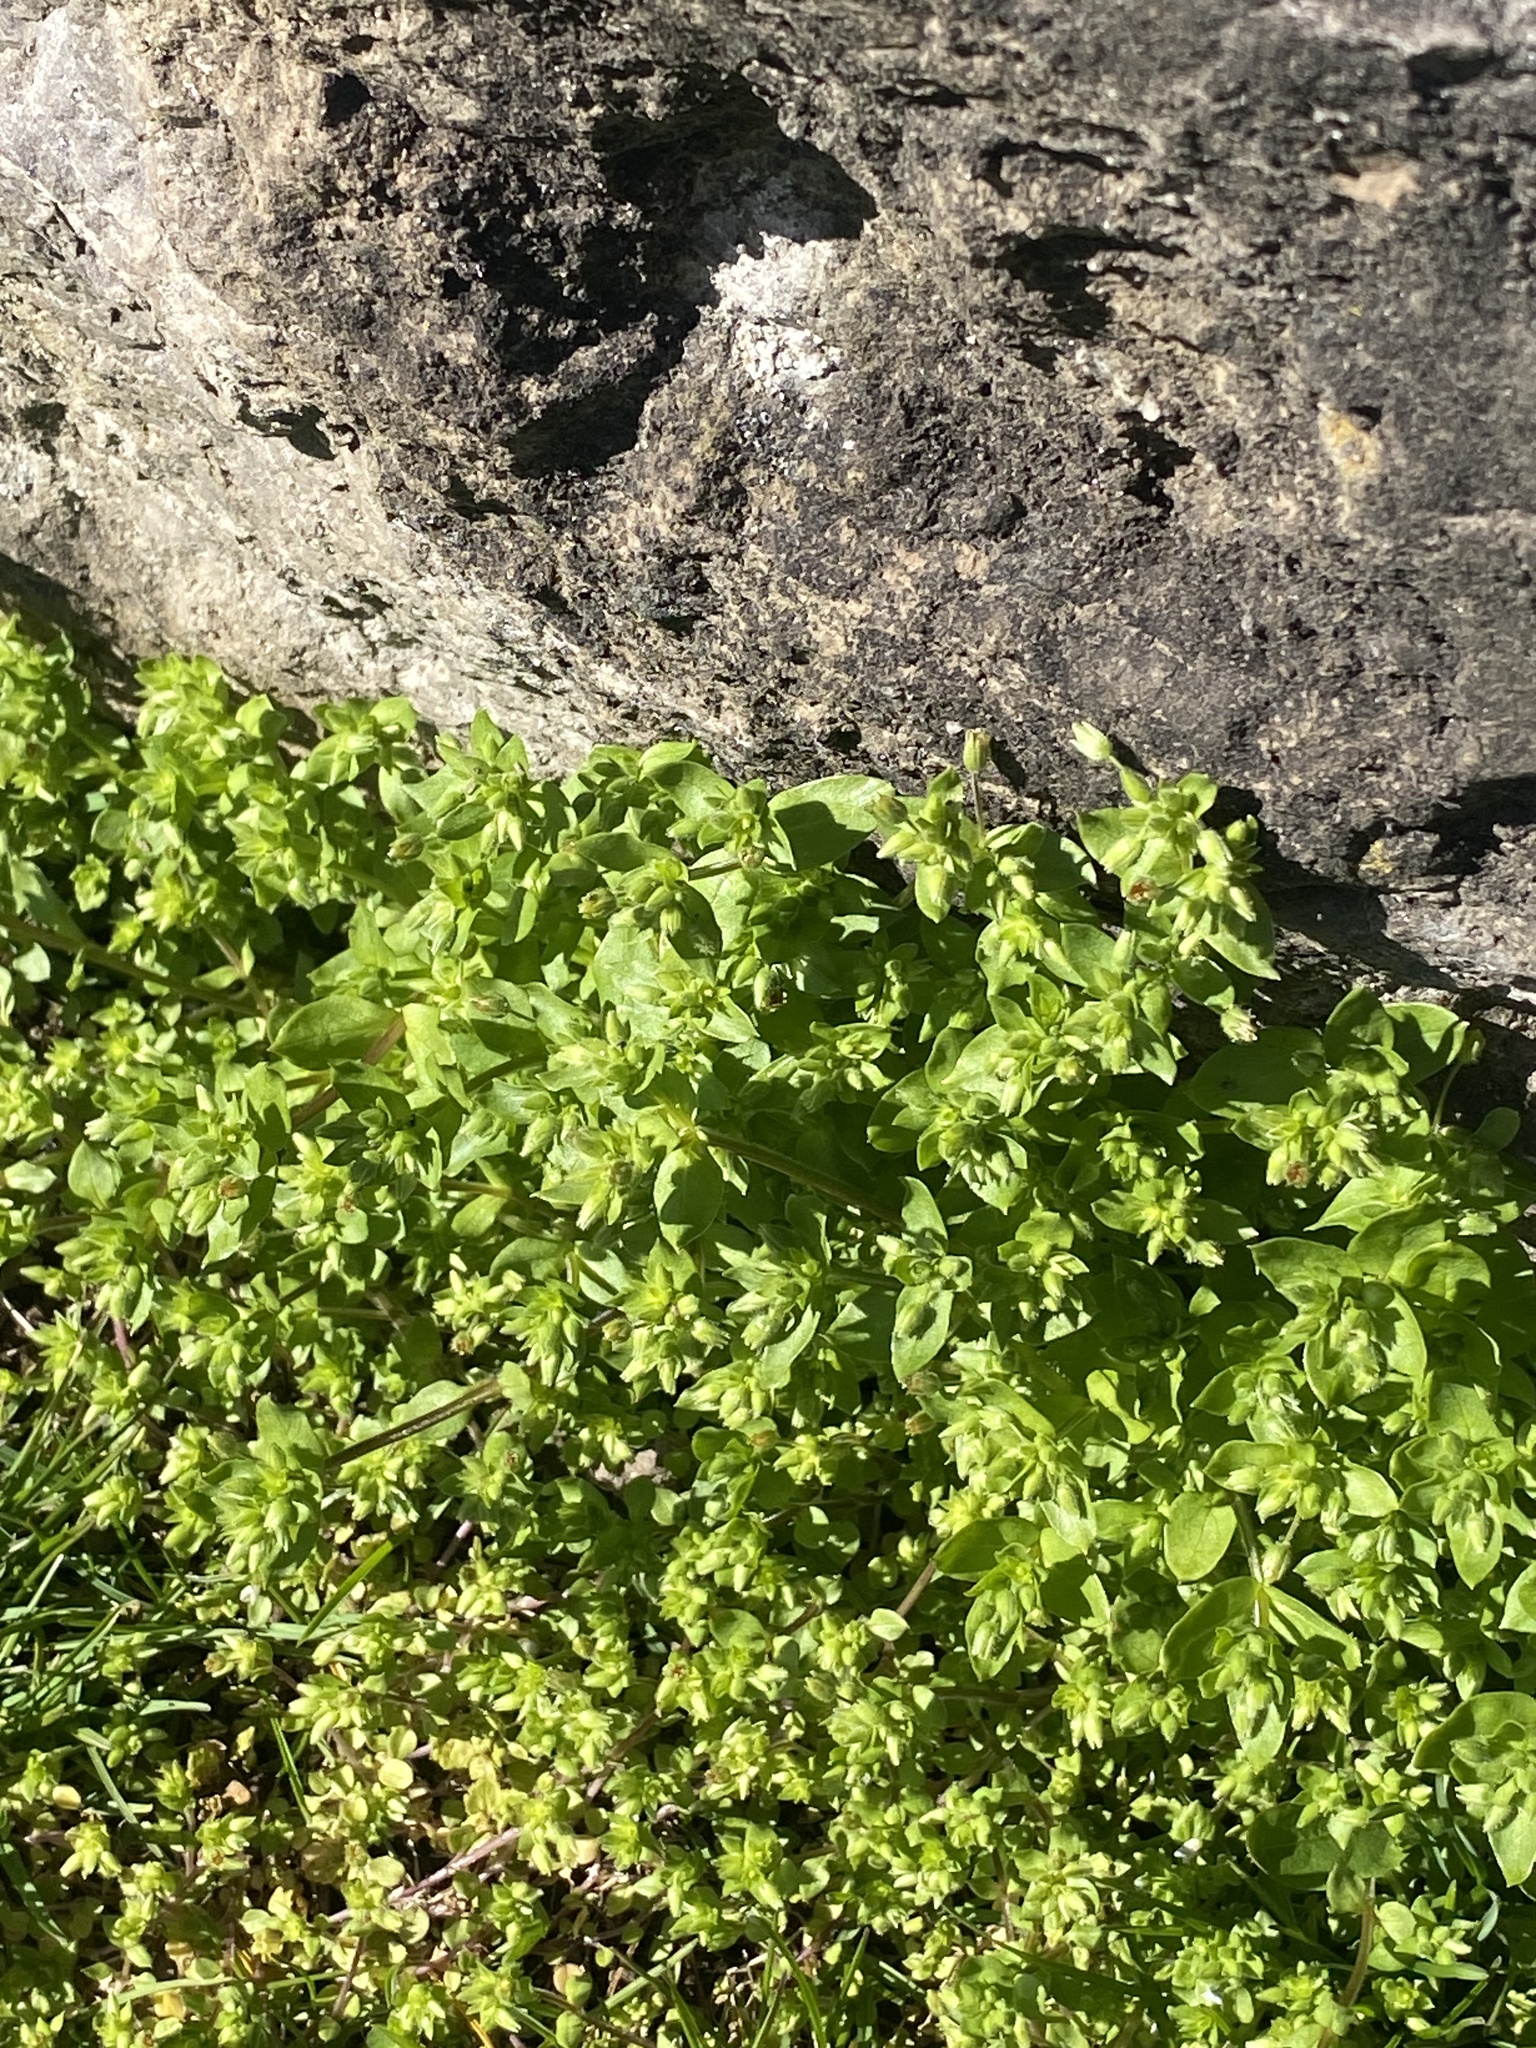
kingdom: Plantae
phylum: Tracheophyta
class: Magnoliopsida
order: Caryophyllales
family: Caryophyllaceae
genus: Stellaria
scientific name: Stellaria media
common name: Common chickweed
